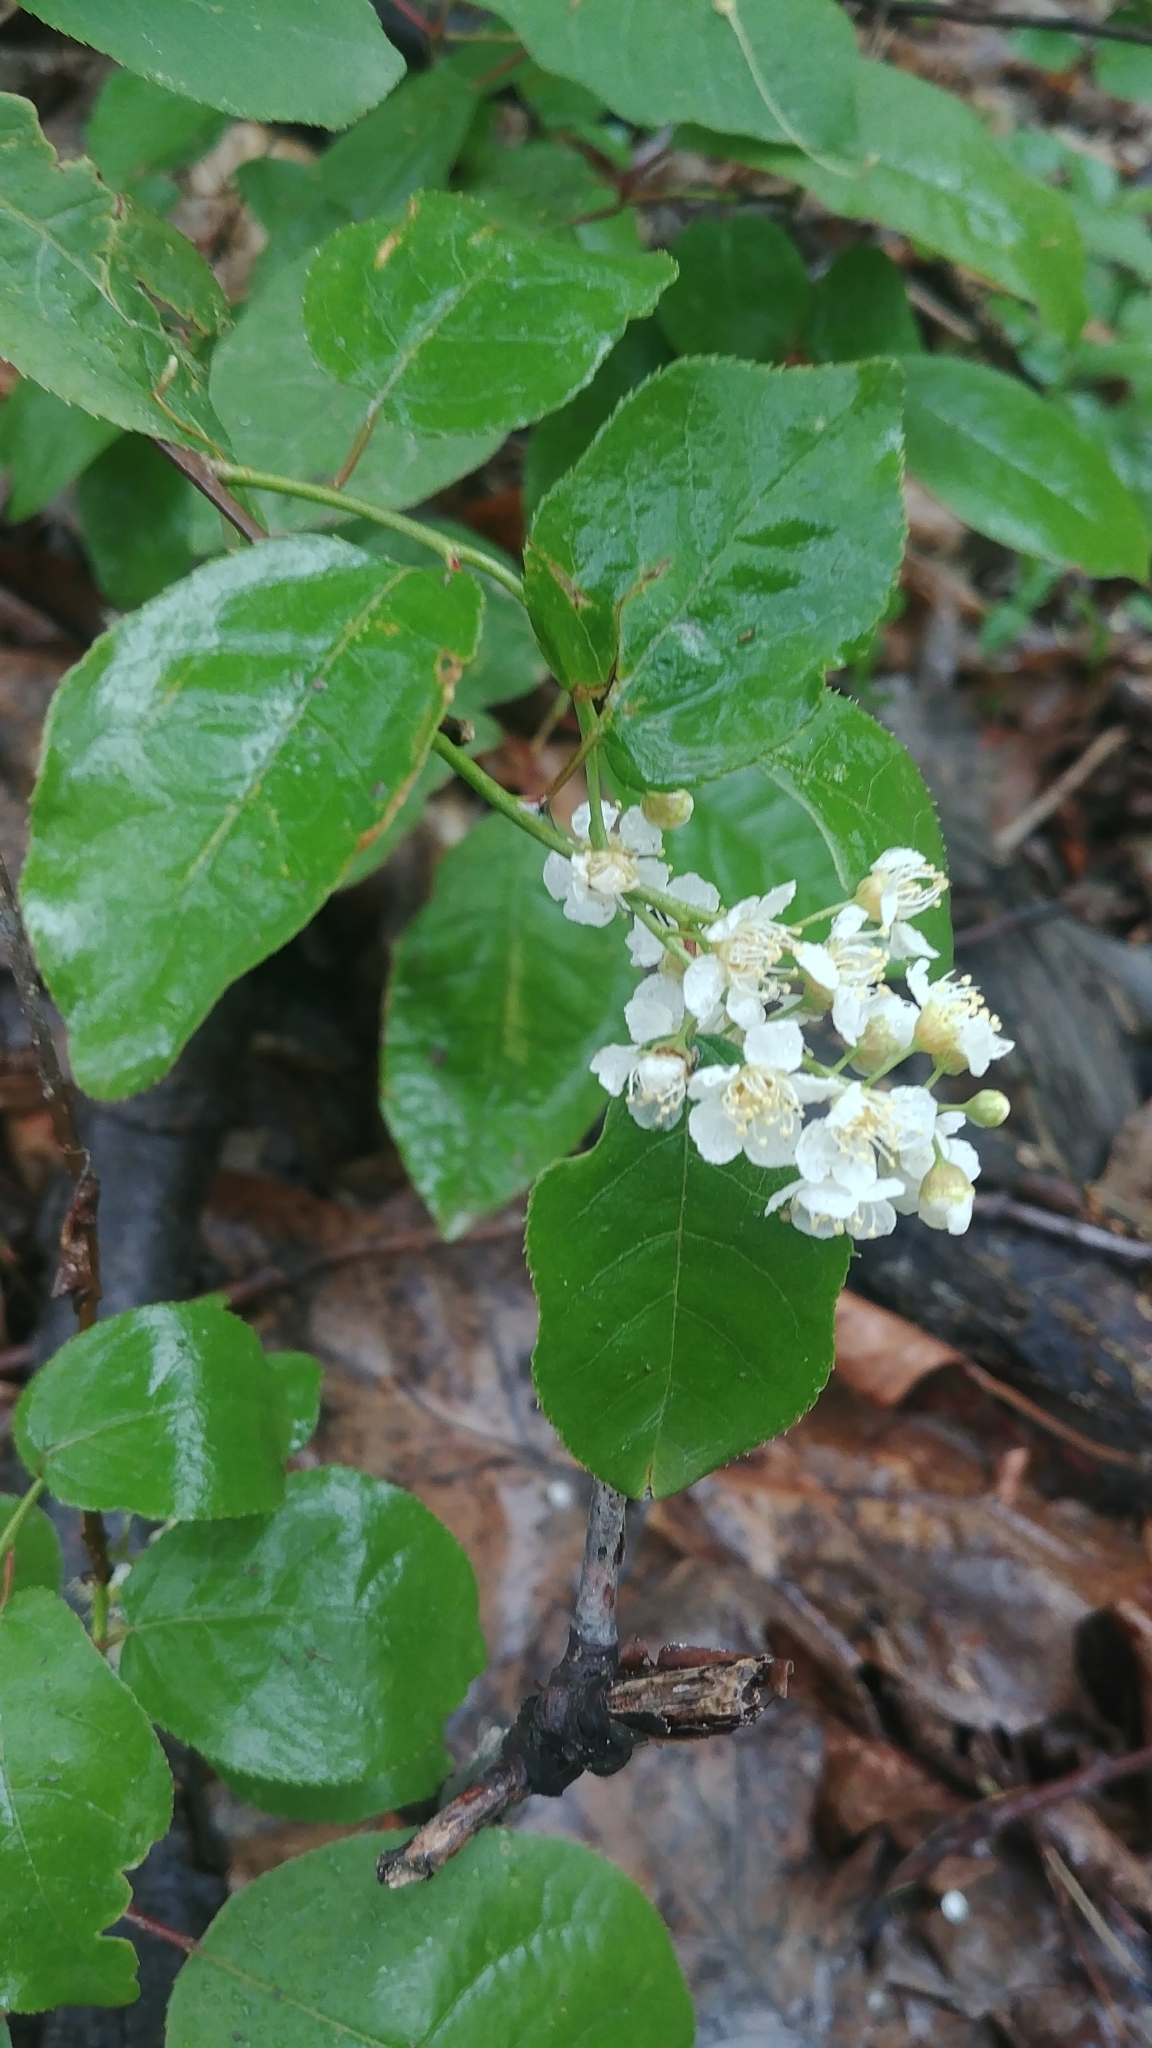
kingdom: Plantae
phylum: Tracheophyta
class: Magnoliopsida
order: Rosales
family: Rosaceae
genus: Prunus
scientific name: Prunus virginiana
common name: Chokecherry
